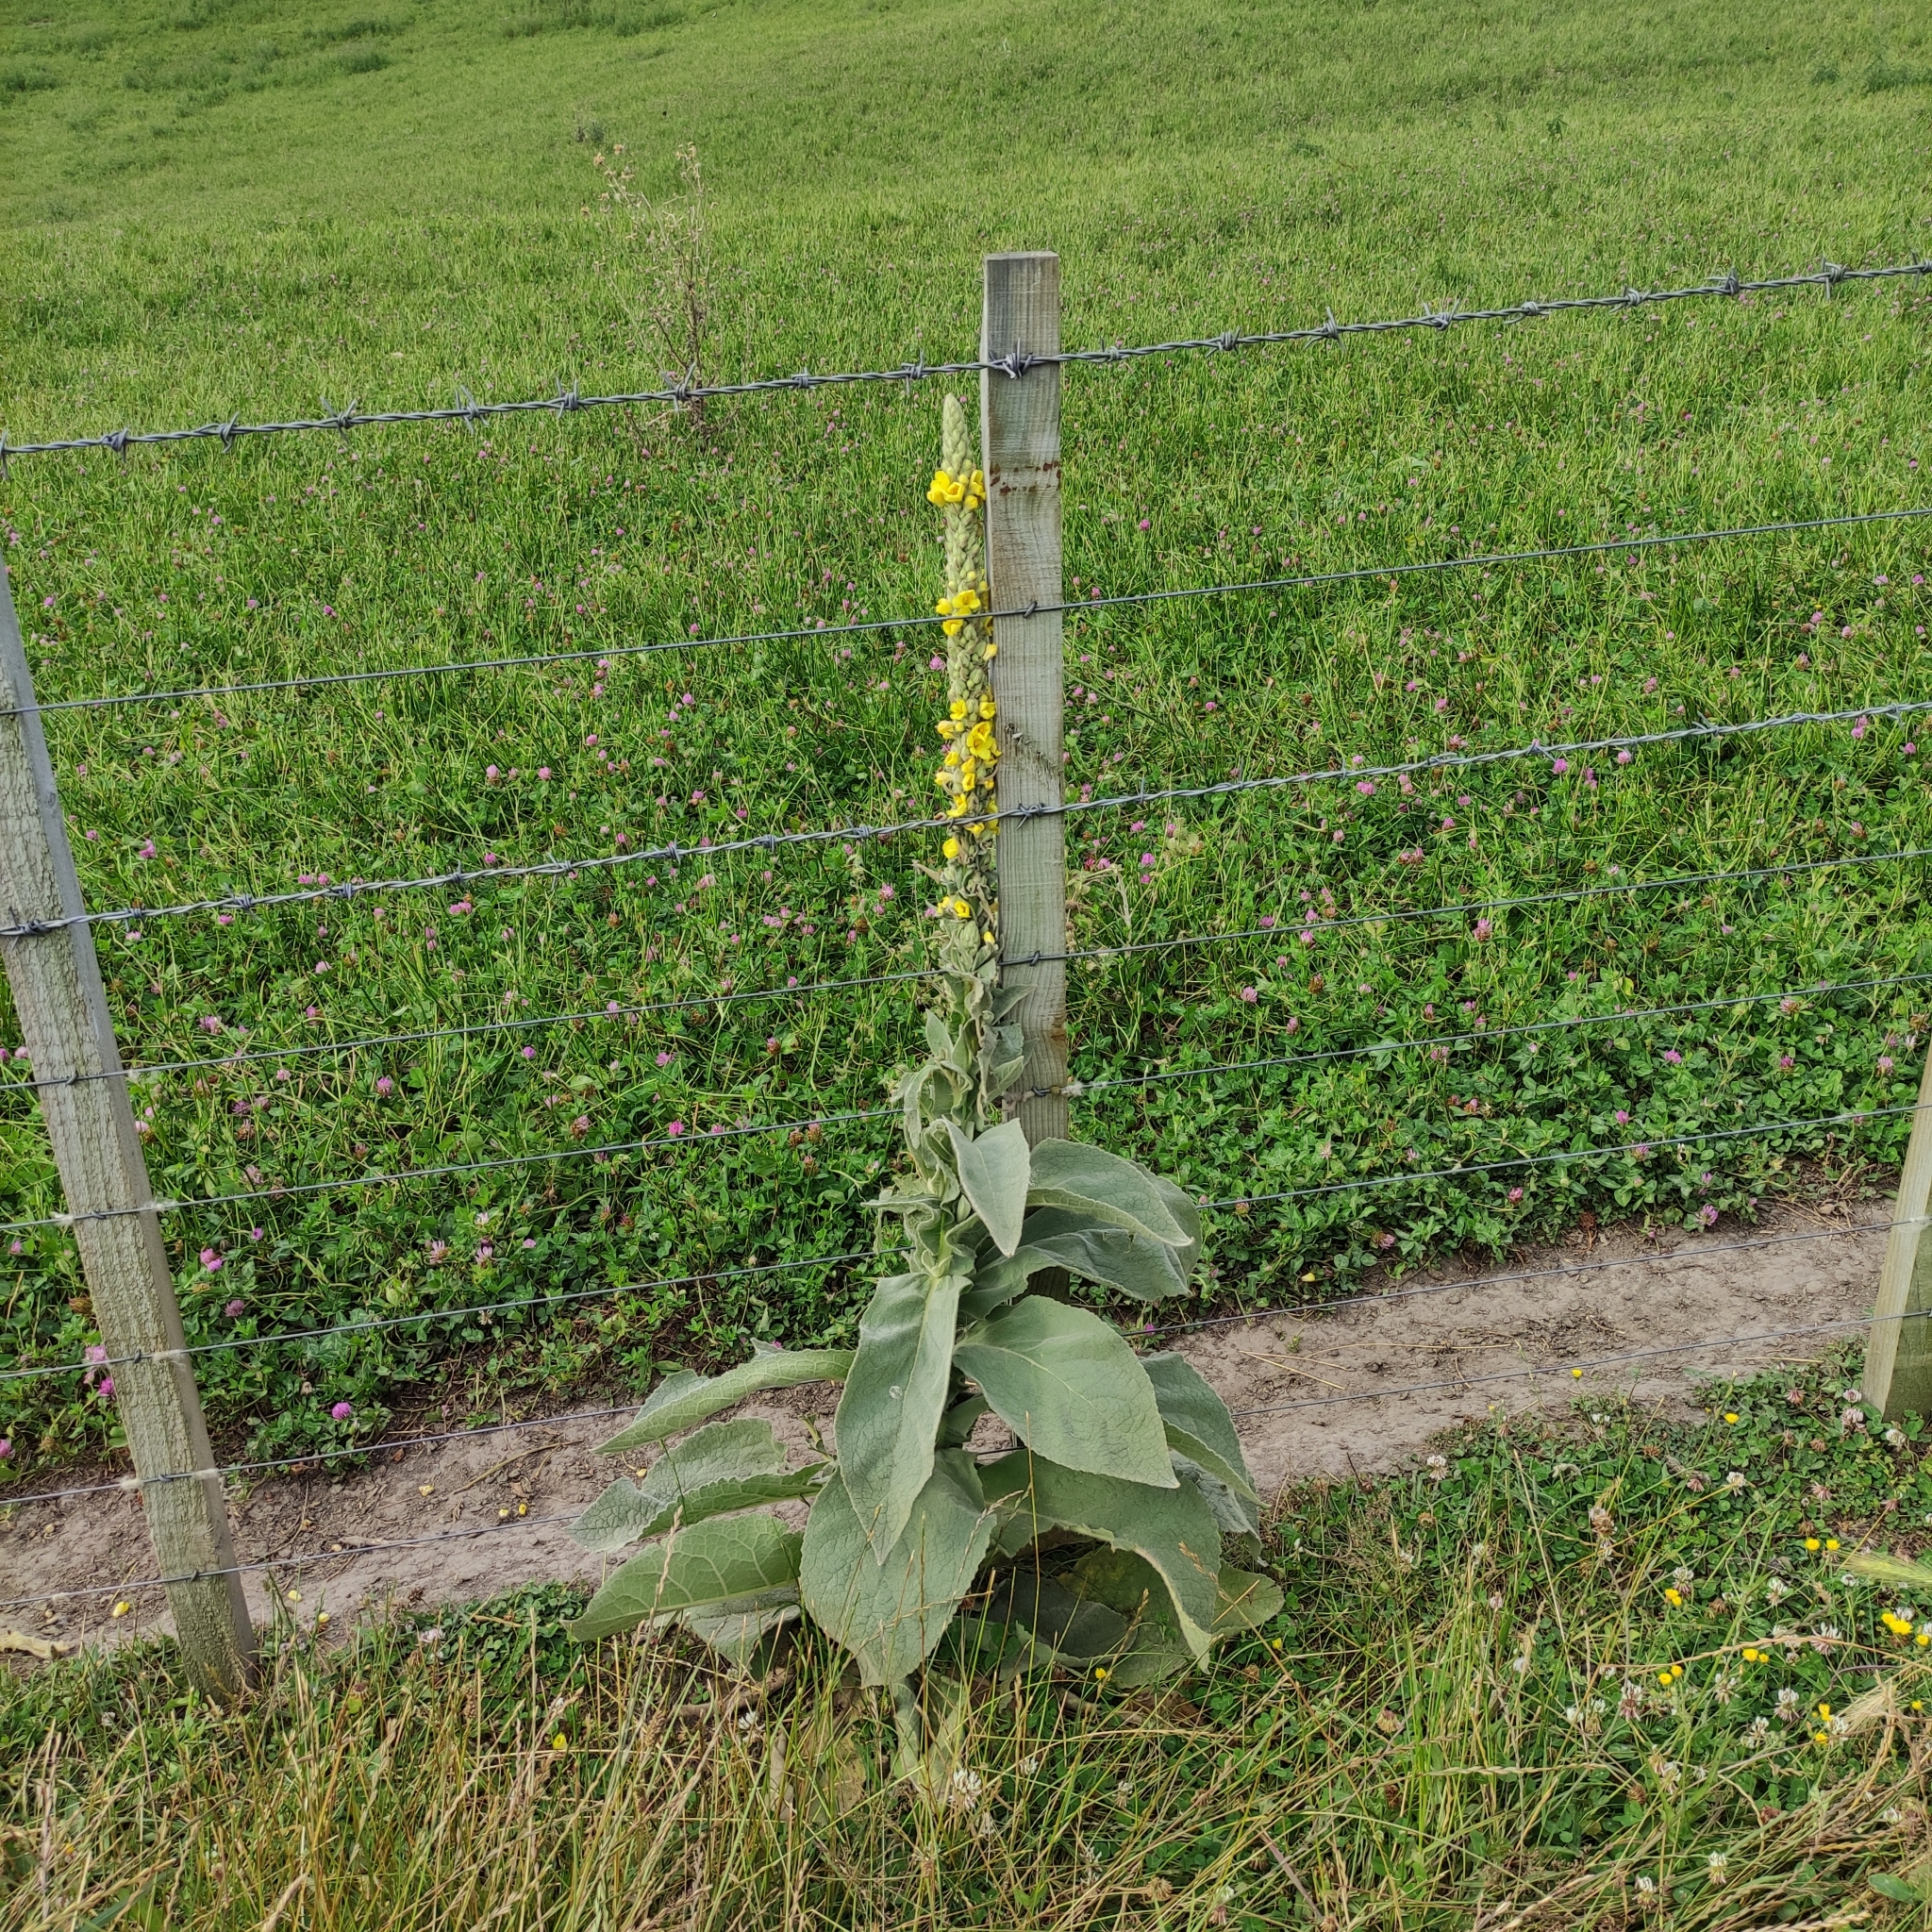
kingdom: Plantae
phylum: Tracheophyta
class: Magnoliopsida
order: Lamiales
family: Scrophulariaceae
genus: Verbascum
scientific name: Verbascum thapsus
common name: Common mullein
